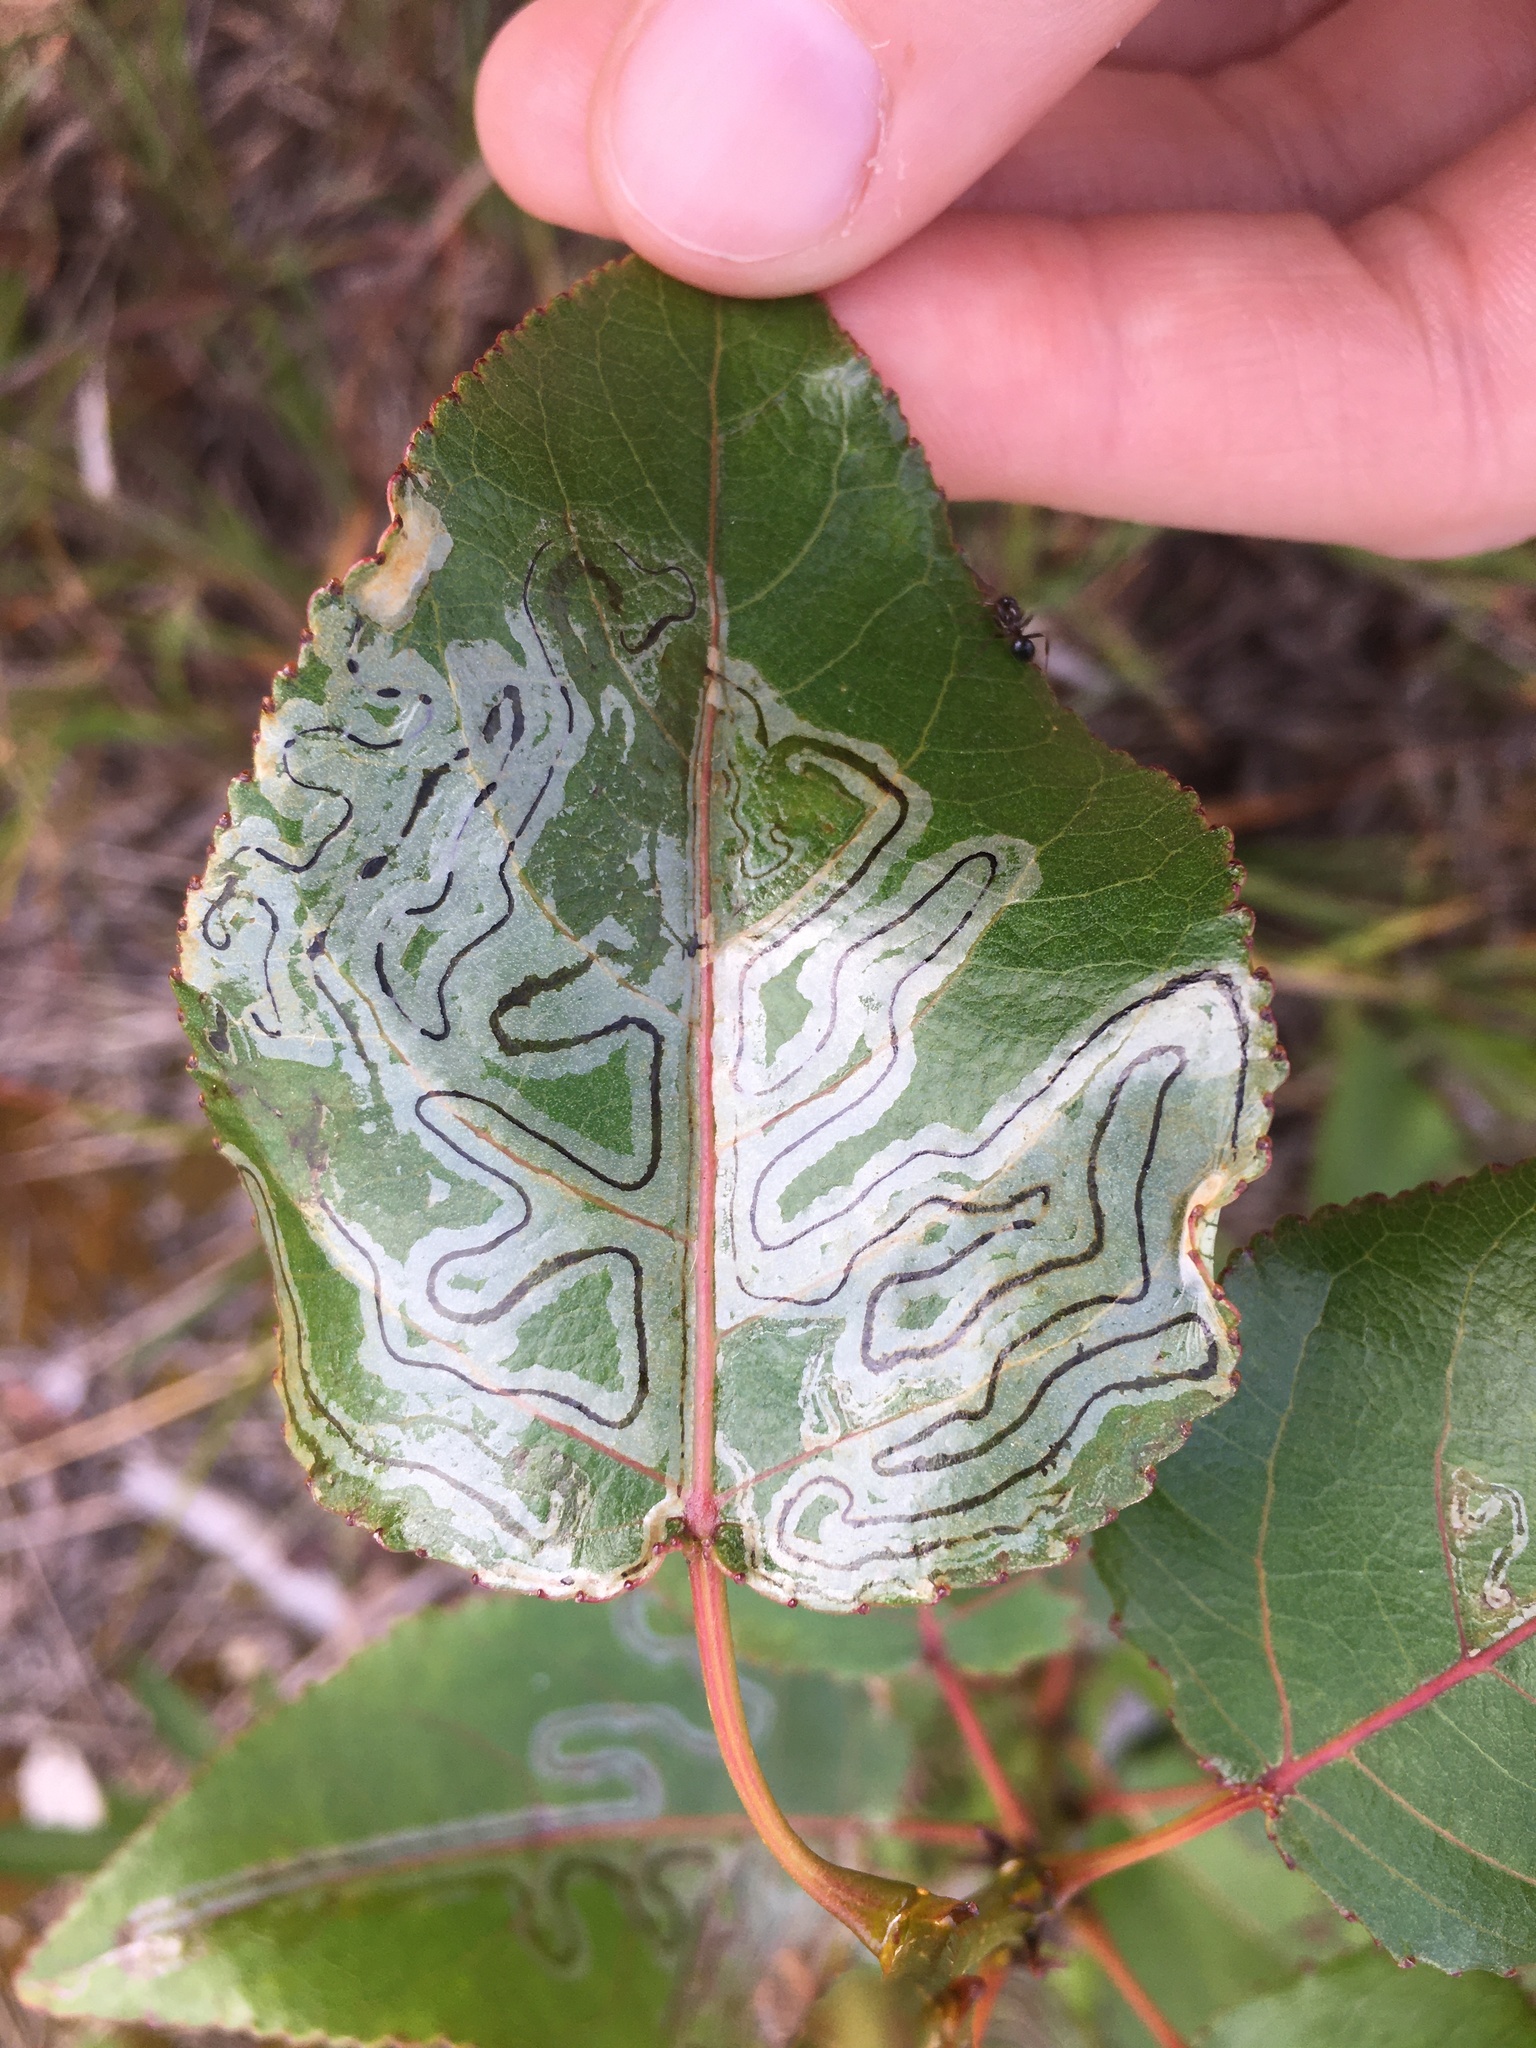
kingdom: Animalia
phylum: Arthropoda
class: Insecta
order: Lepidoptera
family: Gracillariidae
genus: Phyllocnistis
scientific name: Phyllocnistis populiella
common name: Aspen serpentine leafminer moth
